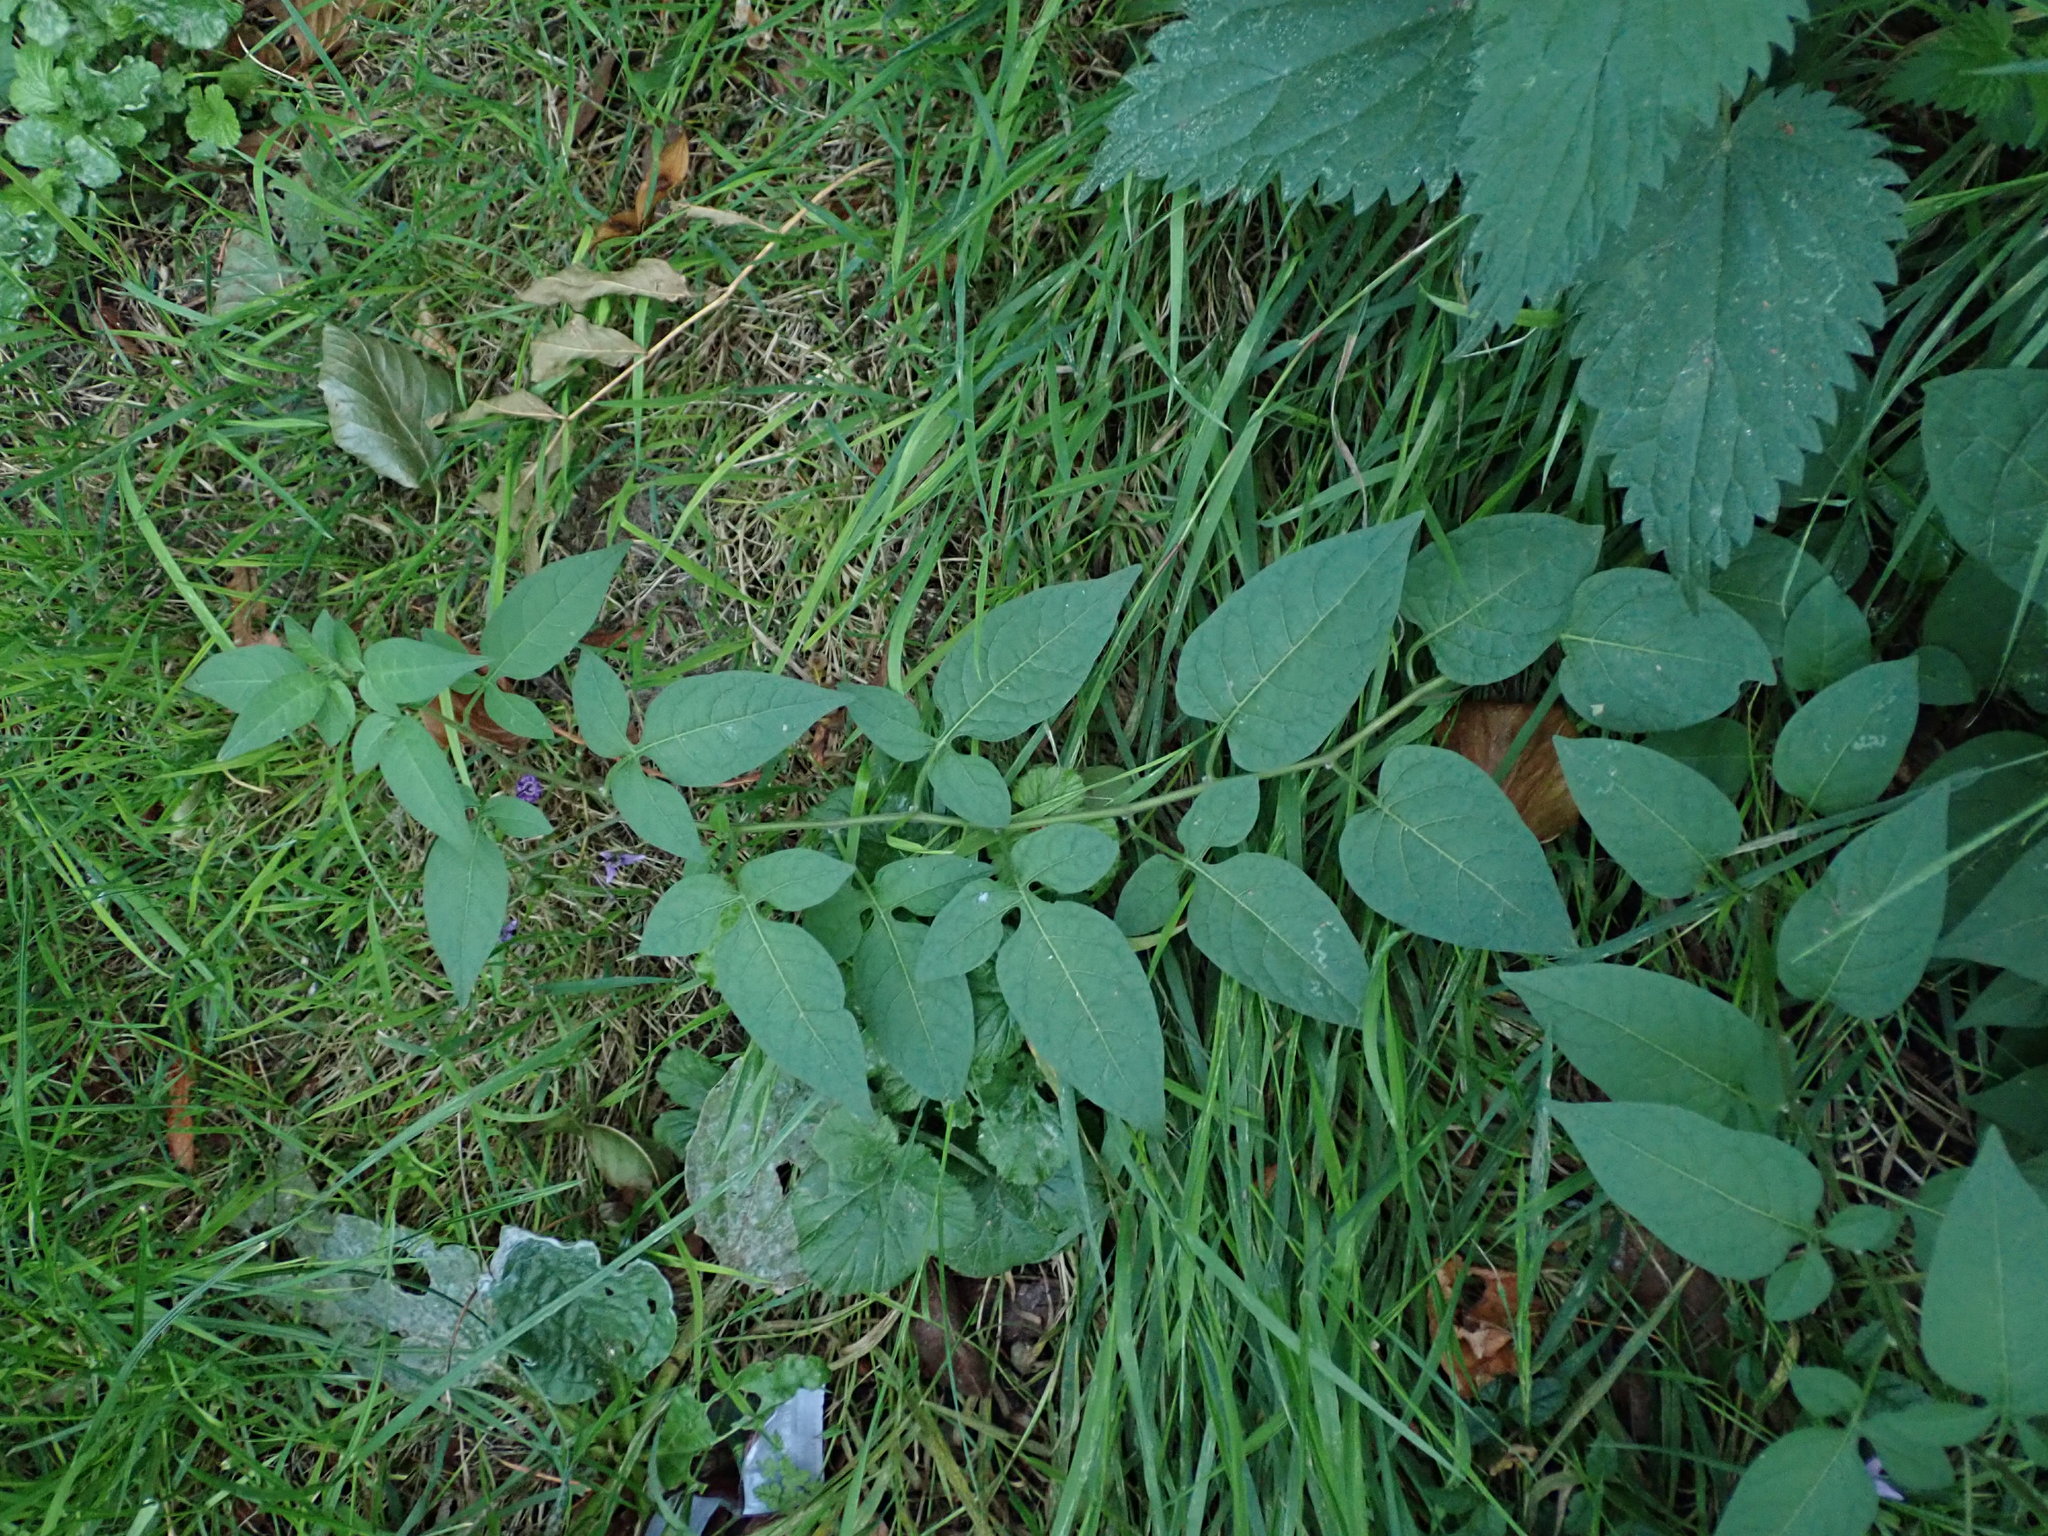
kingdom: Plantae
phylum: Tracheophyta
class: Magnoliopsida
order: Solanales
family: Solanaceae
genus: Solanum
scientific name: Solanum dulcamara
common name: Climbing nightshade
